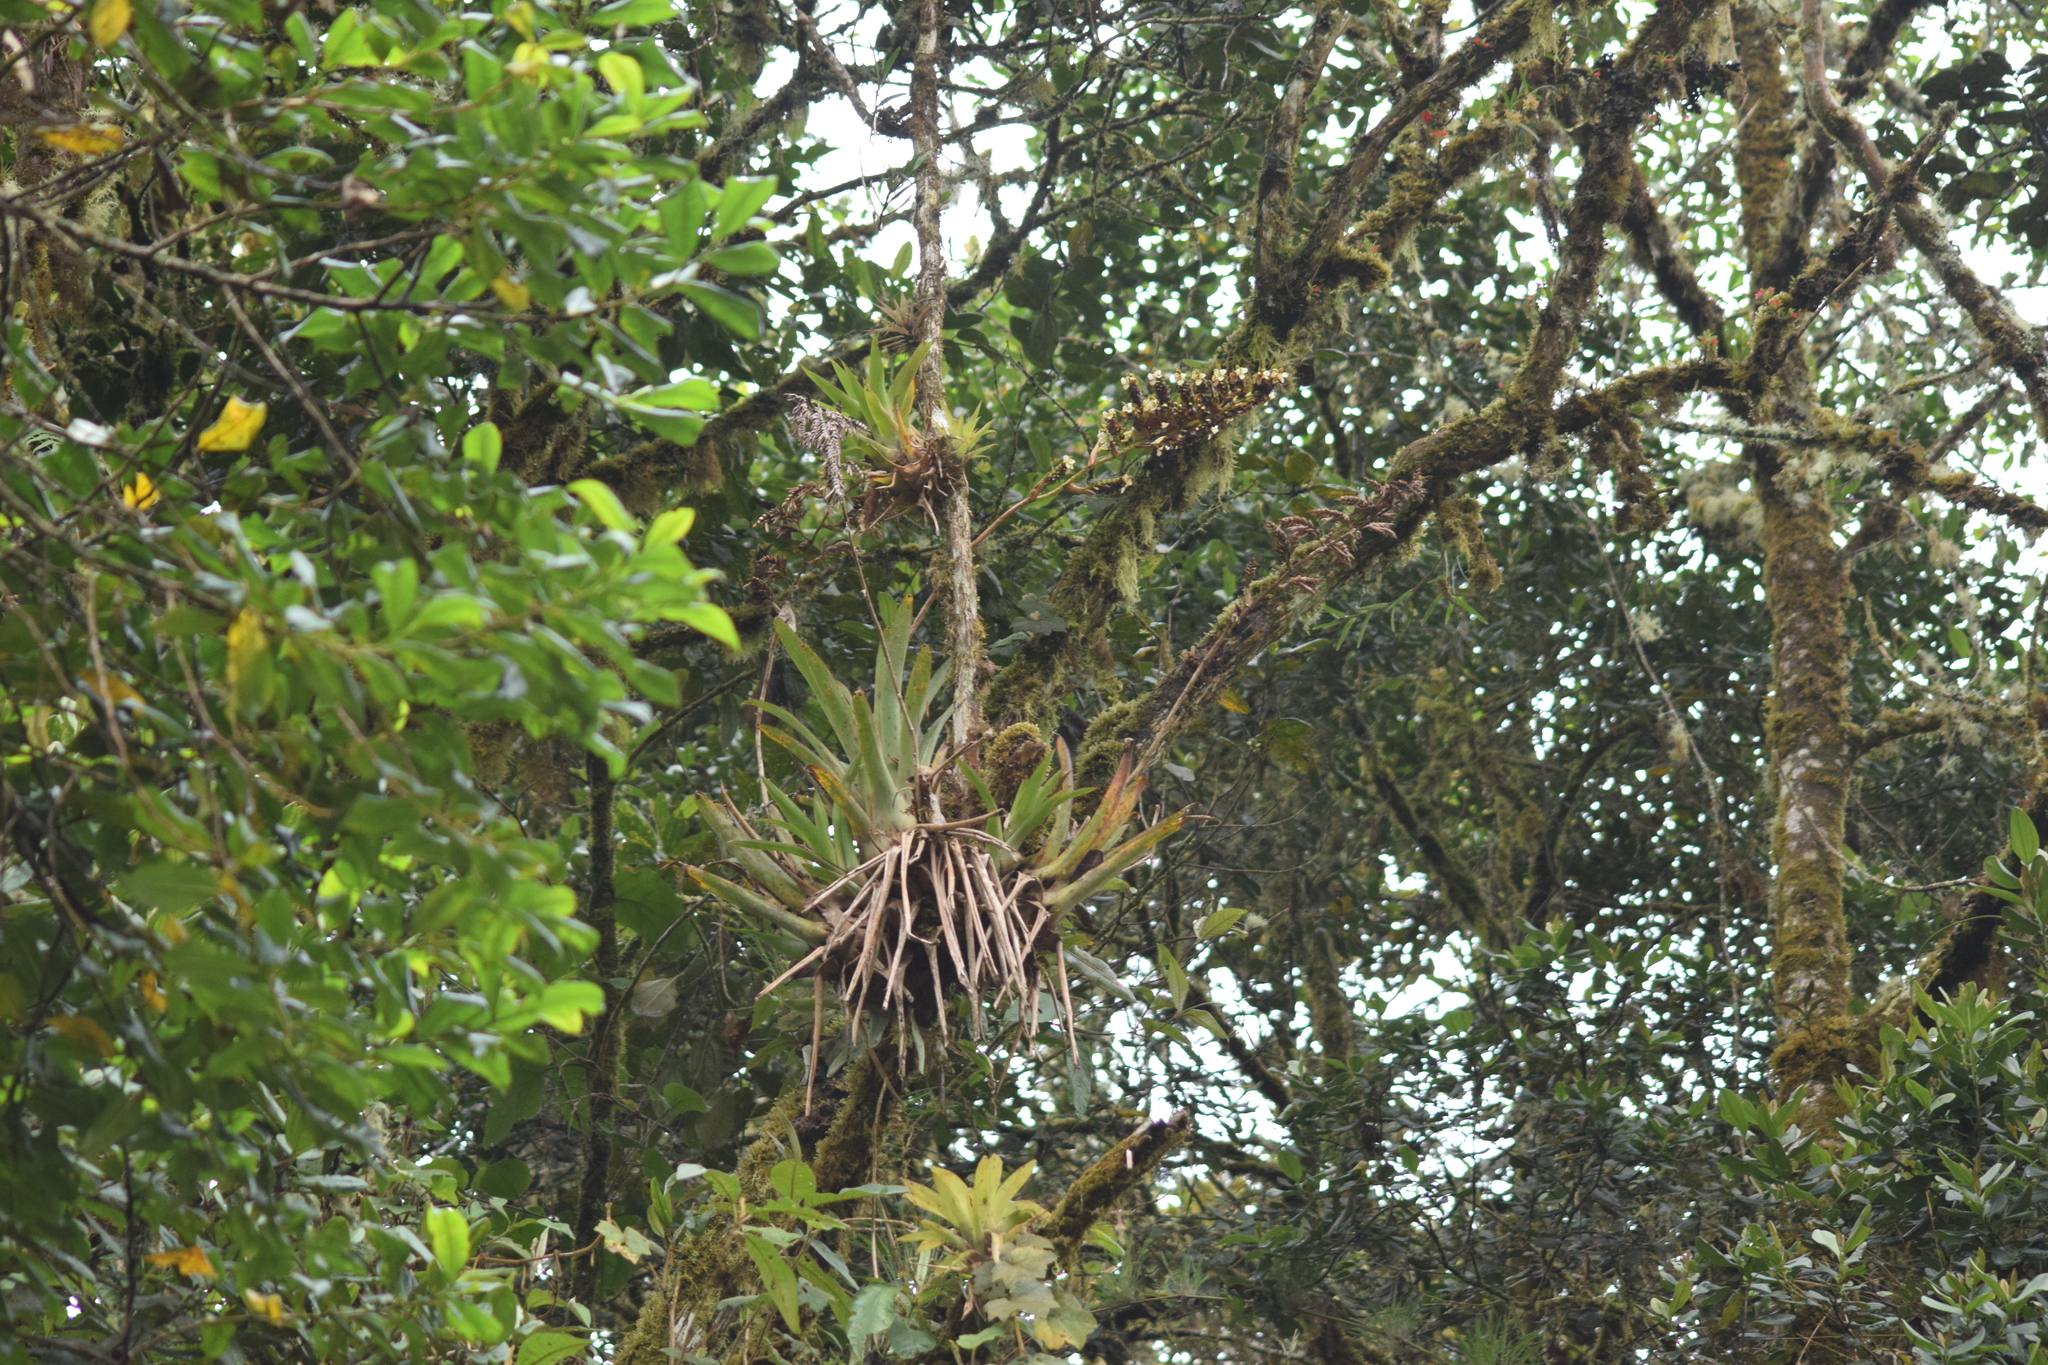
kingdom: Plantae
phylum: Tracheophyta
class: Liliopsida
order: Poales
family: Bromeliaceae
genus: Racinaea
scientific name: Racinaea riocreuxii
